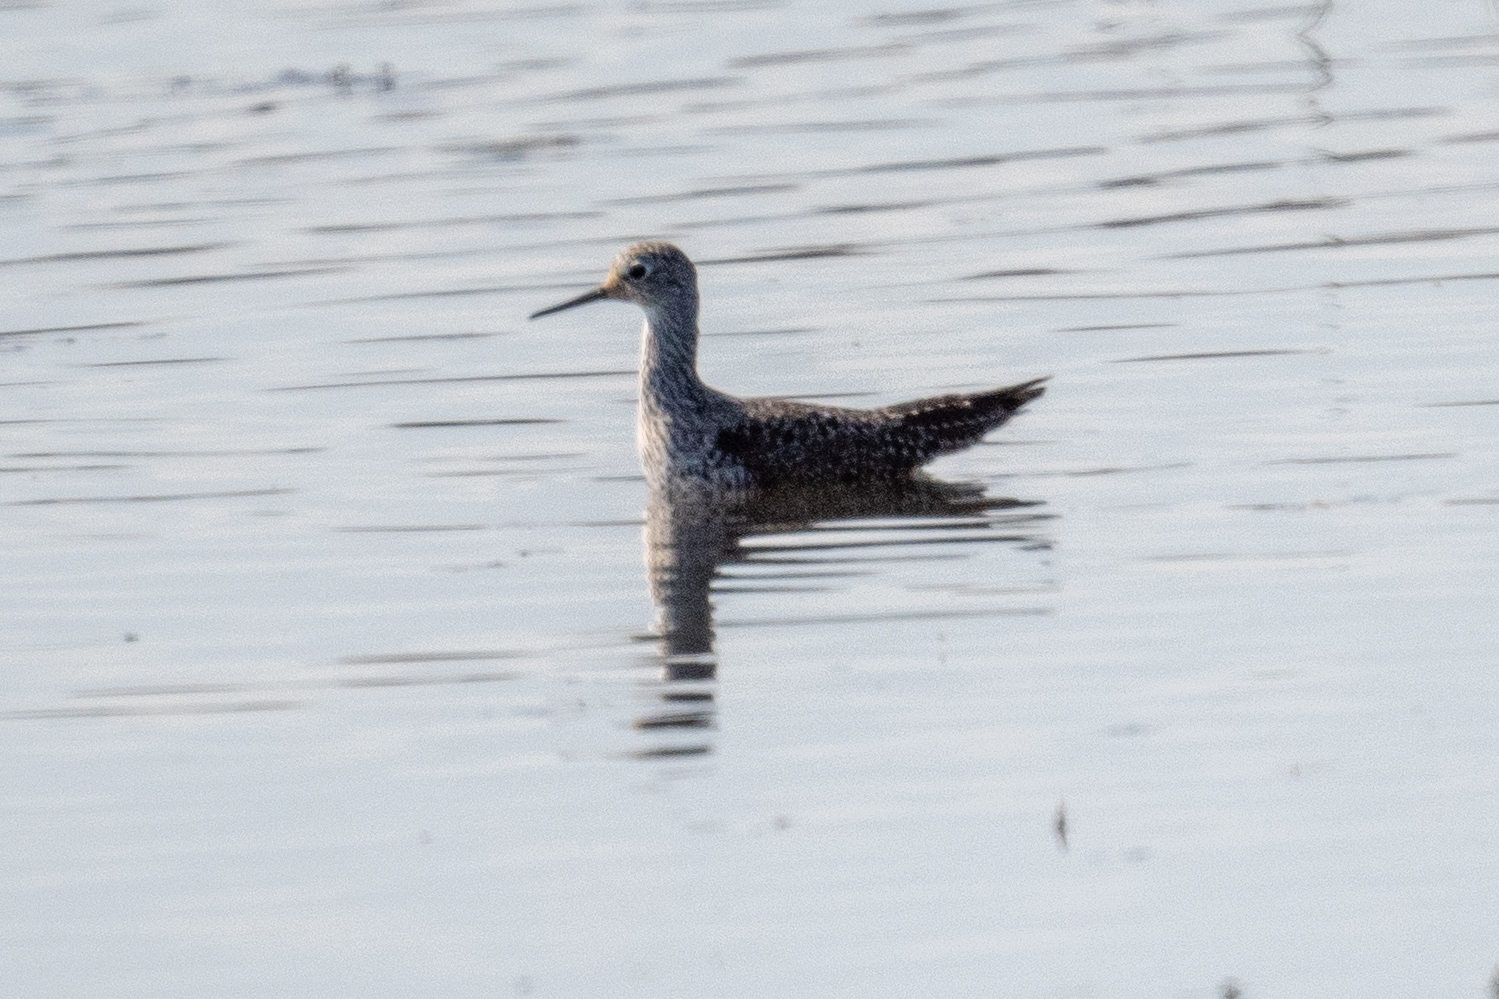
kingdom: Animalia
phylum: Chordata
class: Aves
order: Charadriiformes
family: Scolopacidae
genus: Tringa
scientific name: Tringa flavipes
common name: Lesser yellowlegs
